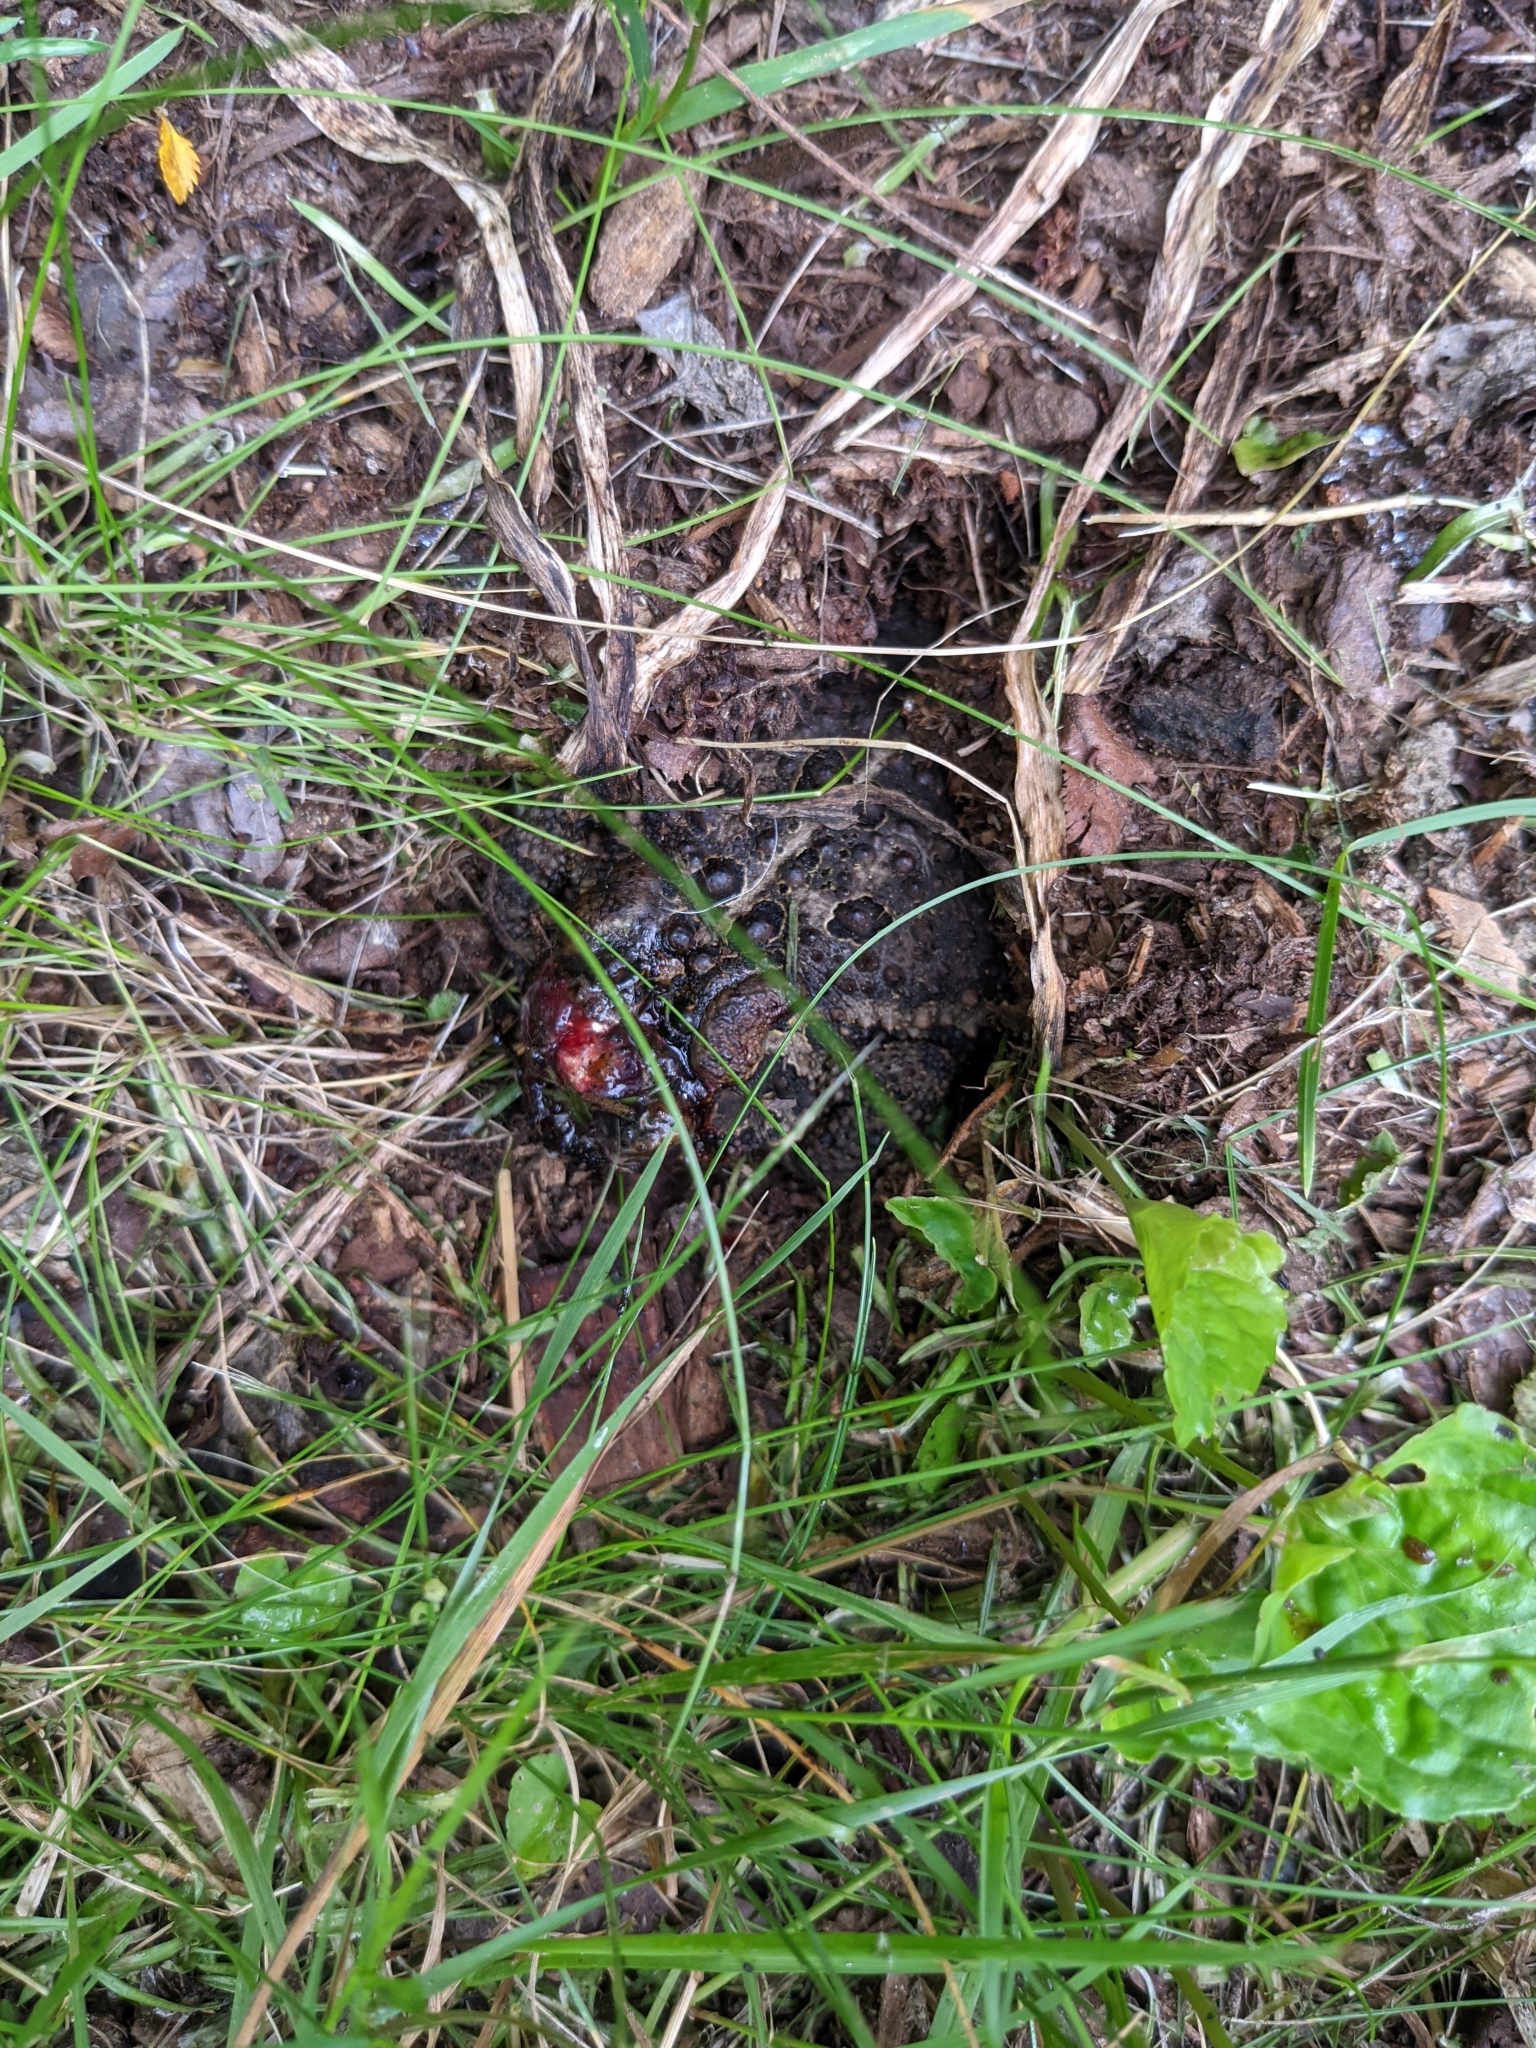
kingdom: Animalia
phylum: Chordata
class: Amphibia
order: Anura
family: Bufonidae
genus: Anaxyrus
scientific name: Anaxyrus americanus
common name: American toad
